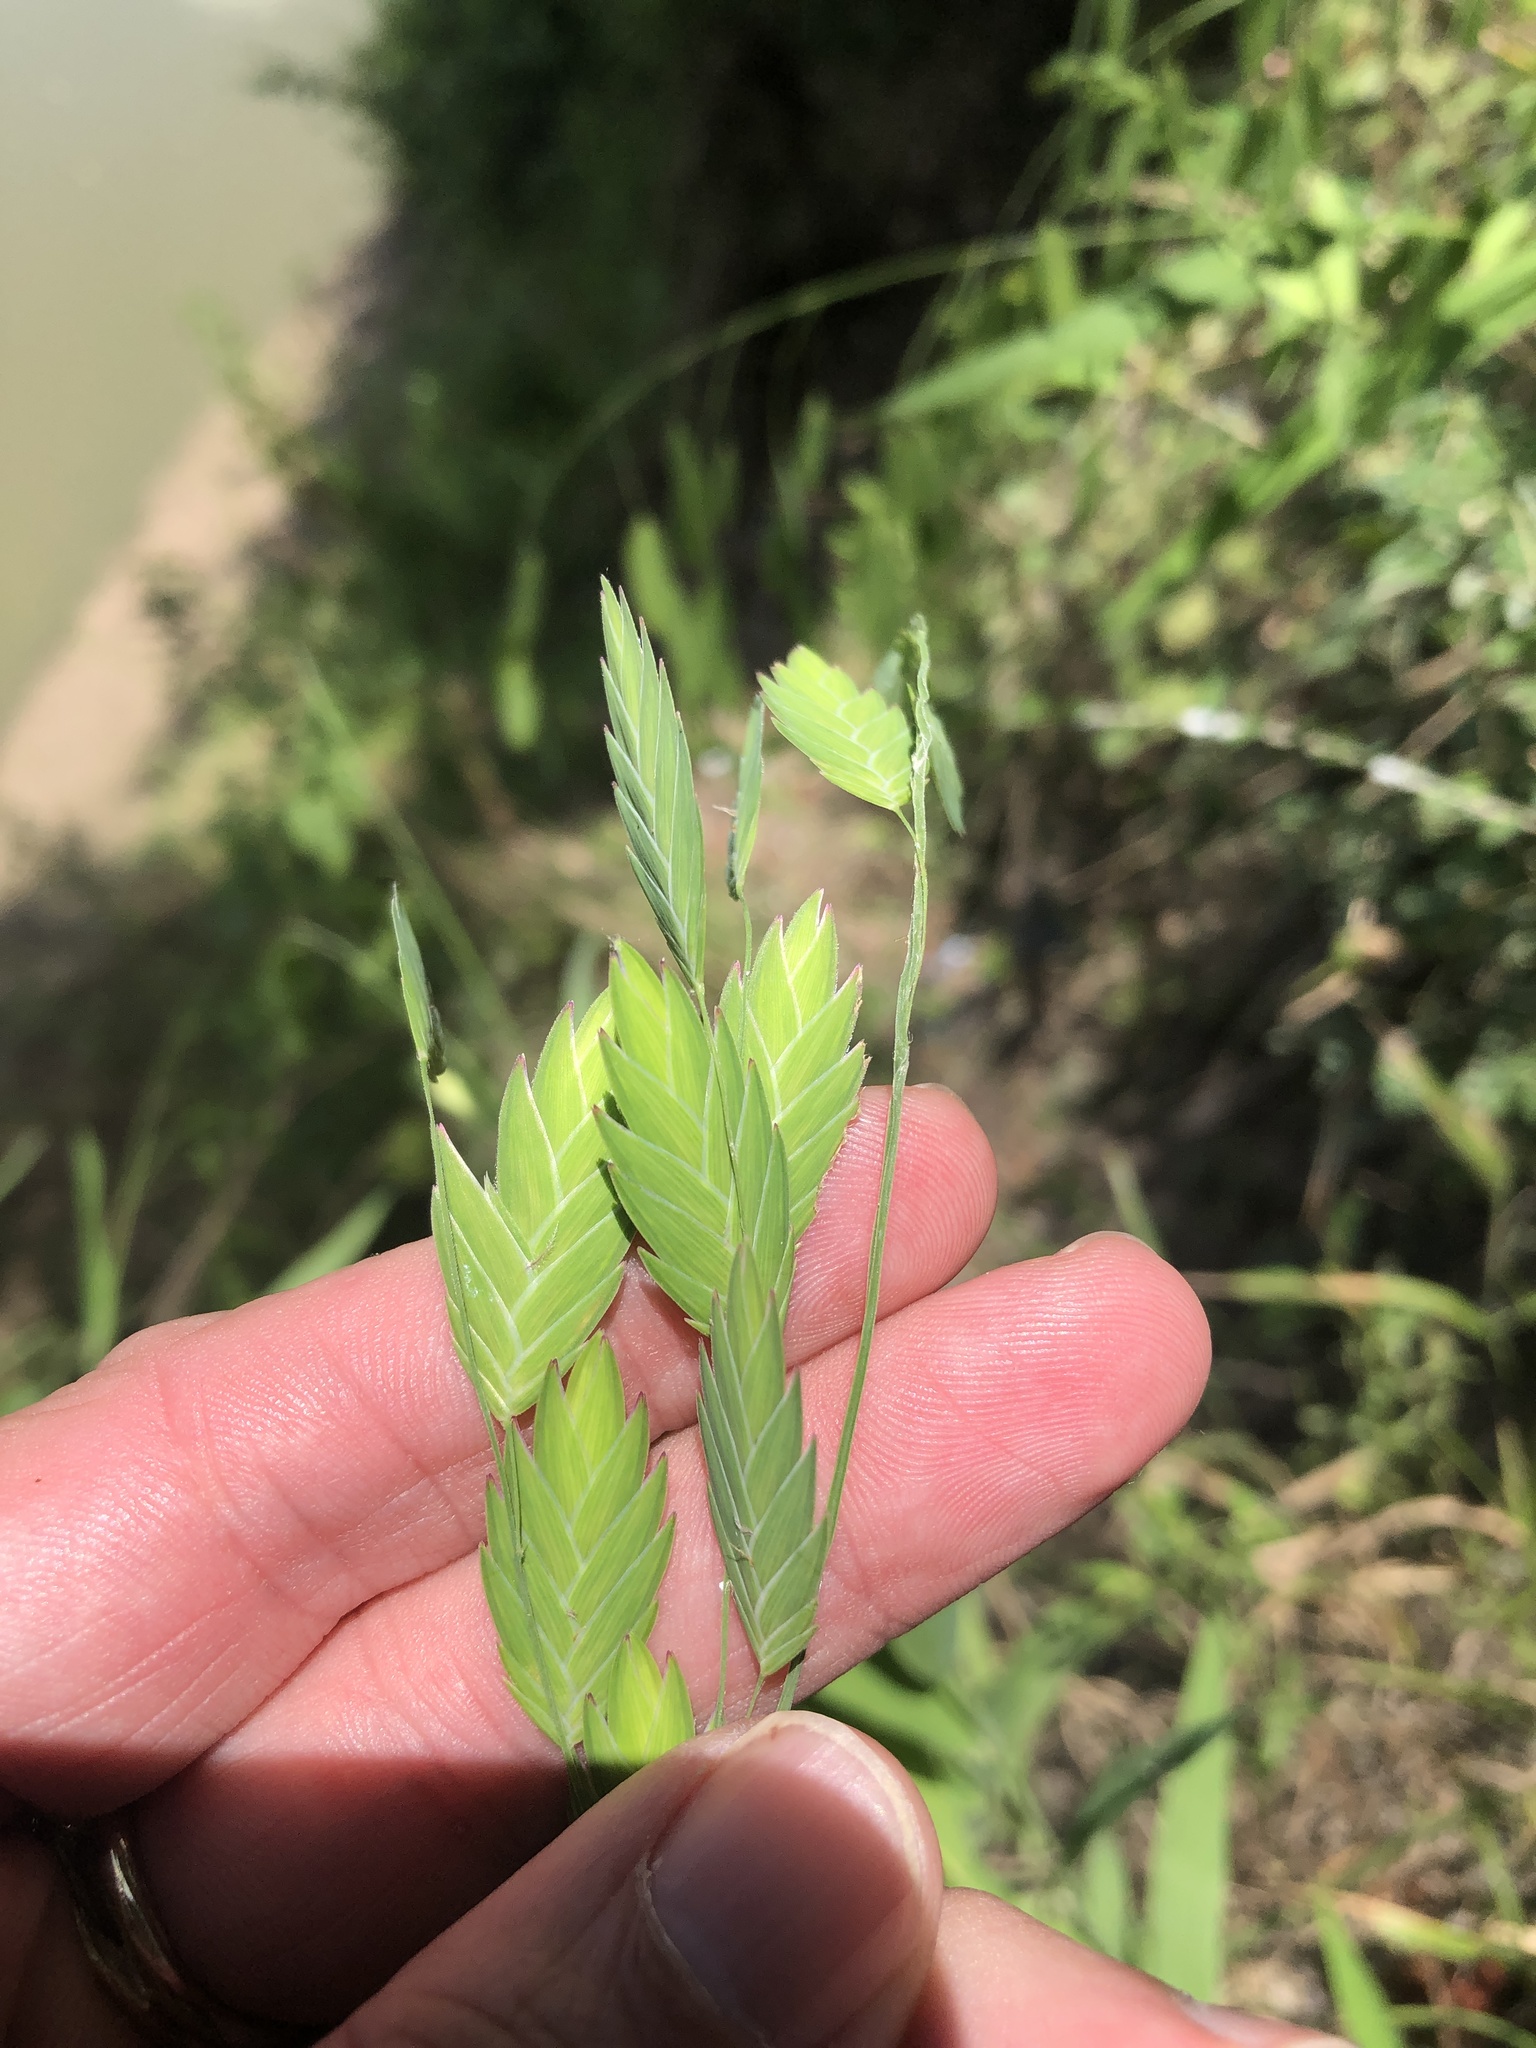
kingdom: Plantae
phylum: Tracheophyta
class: Liliopsida
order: Poales
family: Poaceae
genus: Chasmanthium
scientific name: Chasmanthium latifolium
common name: Broad-leaved chasmanthium
